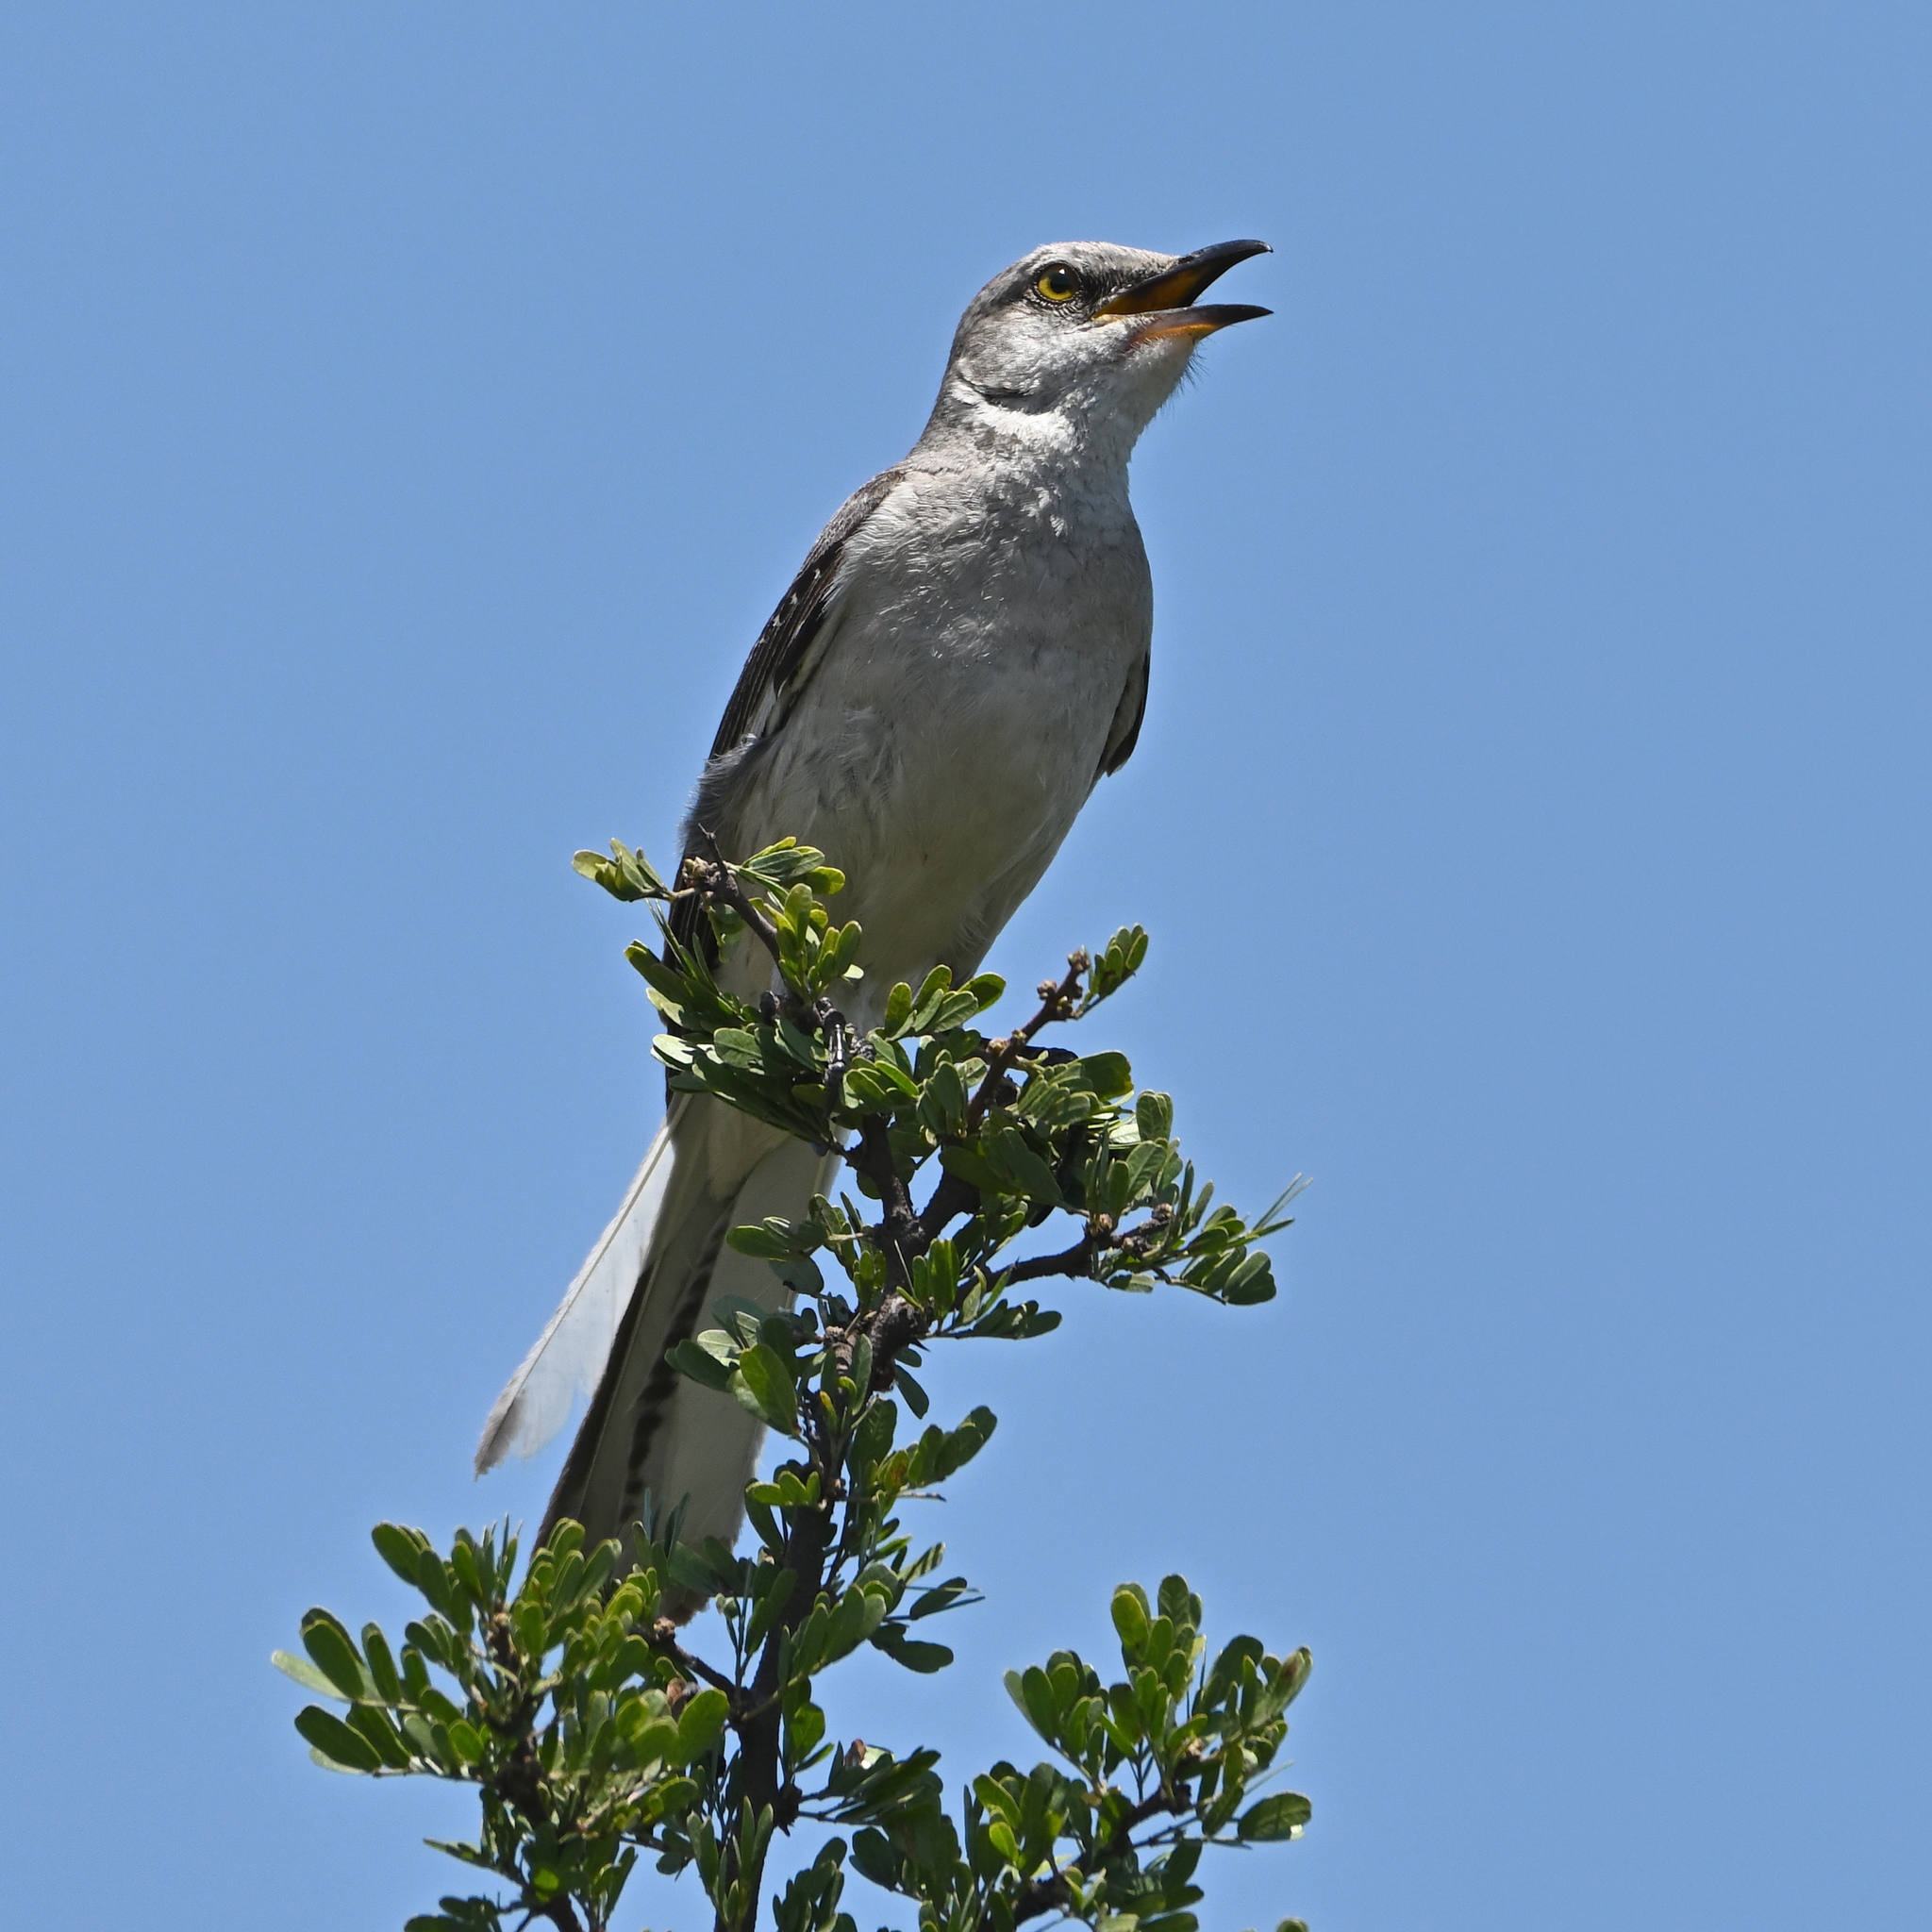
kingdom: Animalia
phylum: Chordata
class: Aves
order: Passeriformes
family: Mimidae
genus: Mimus
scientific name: Mimus polyglottos
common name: Northern mockingbird
